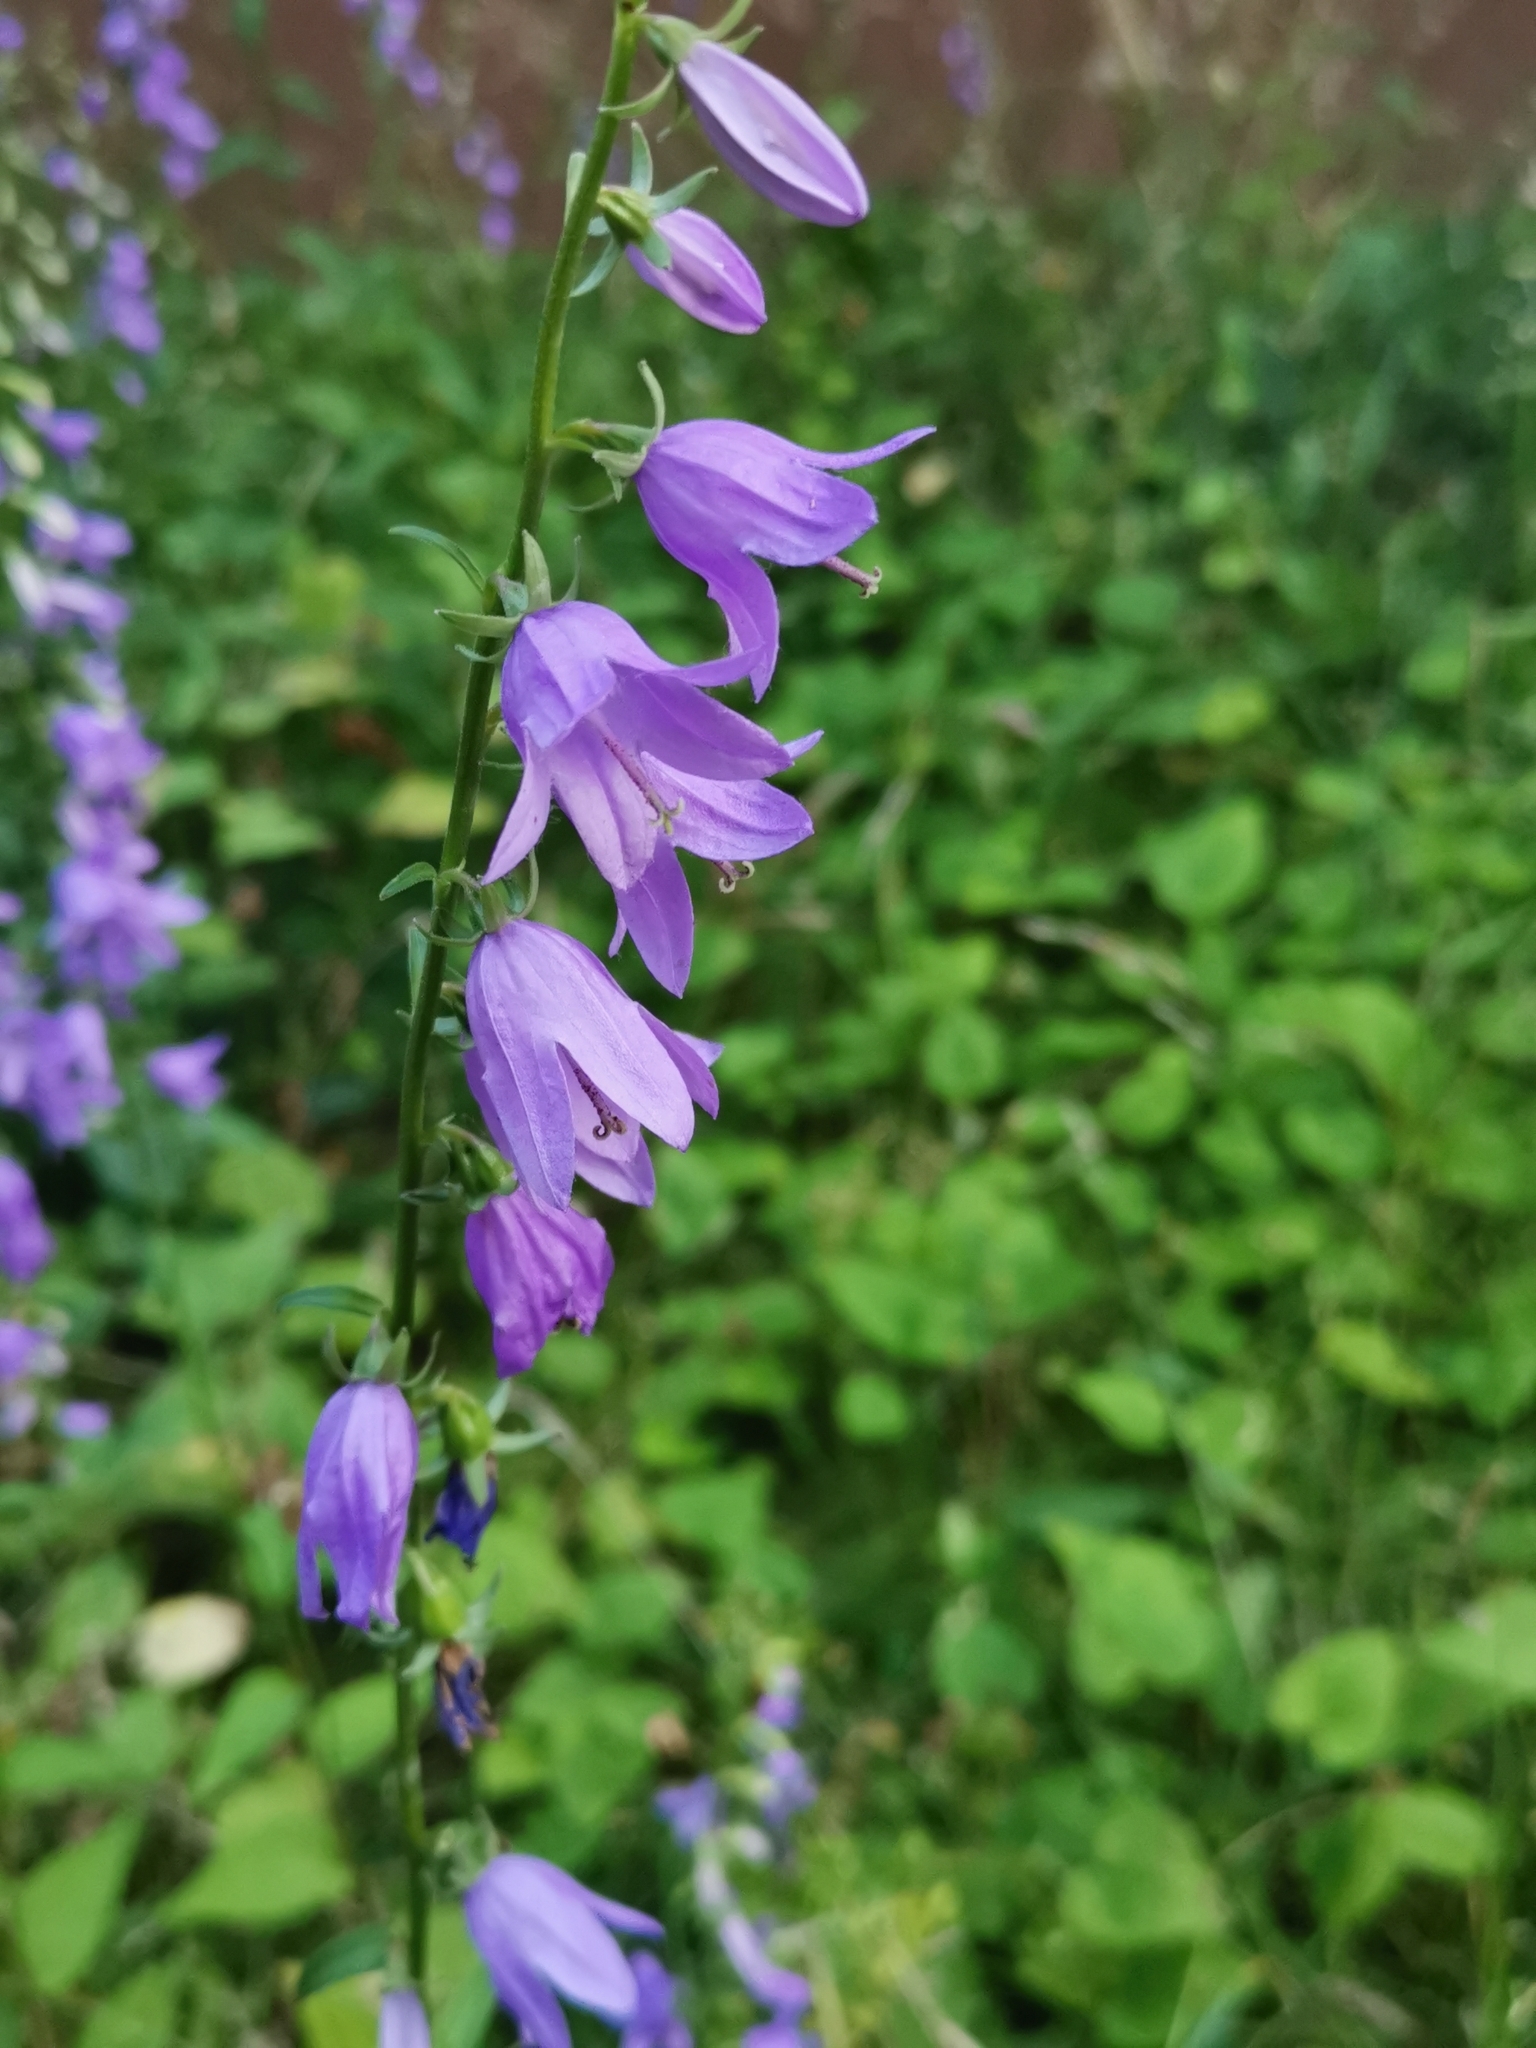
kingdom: Plantae
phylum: Tracheophyta
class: Magnoliopsida
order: Asterales
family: Campanulaceae
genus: Campanula
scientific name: Campanula rapunculoides
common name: Creeping bellflower
